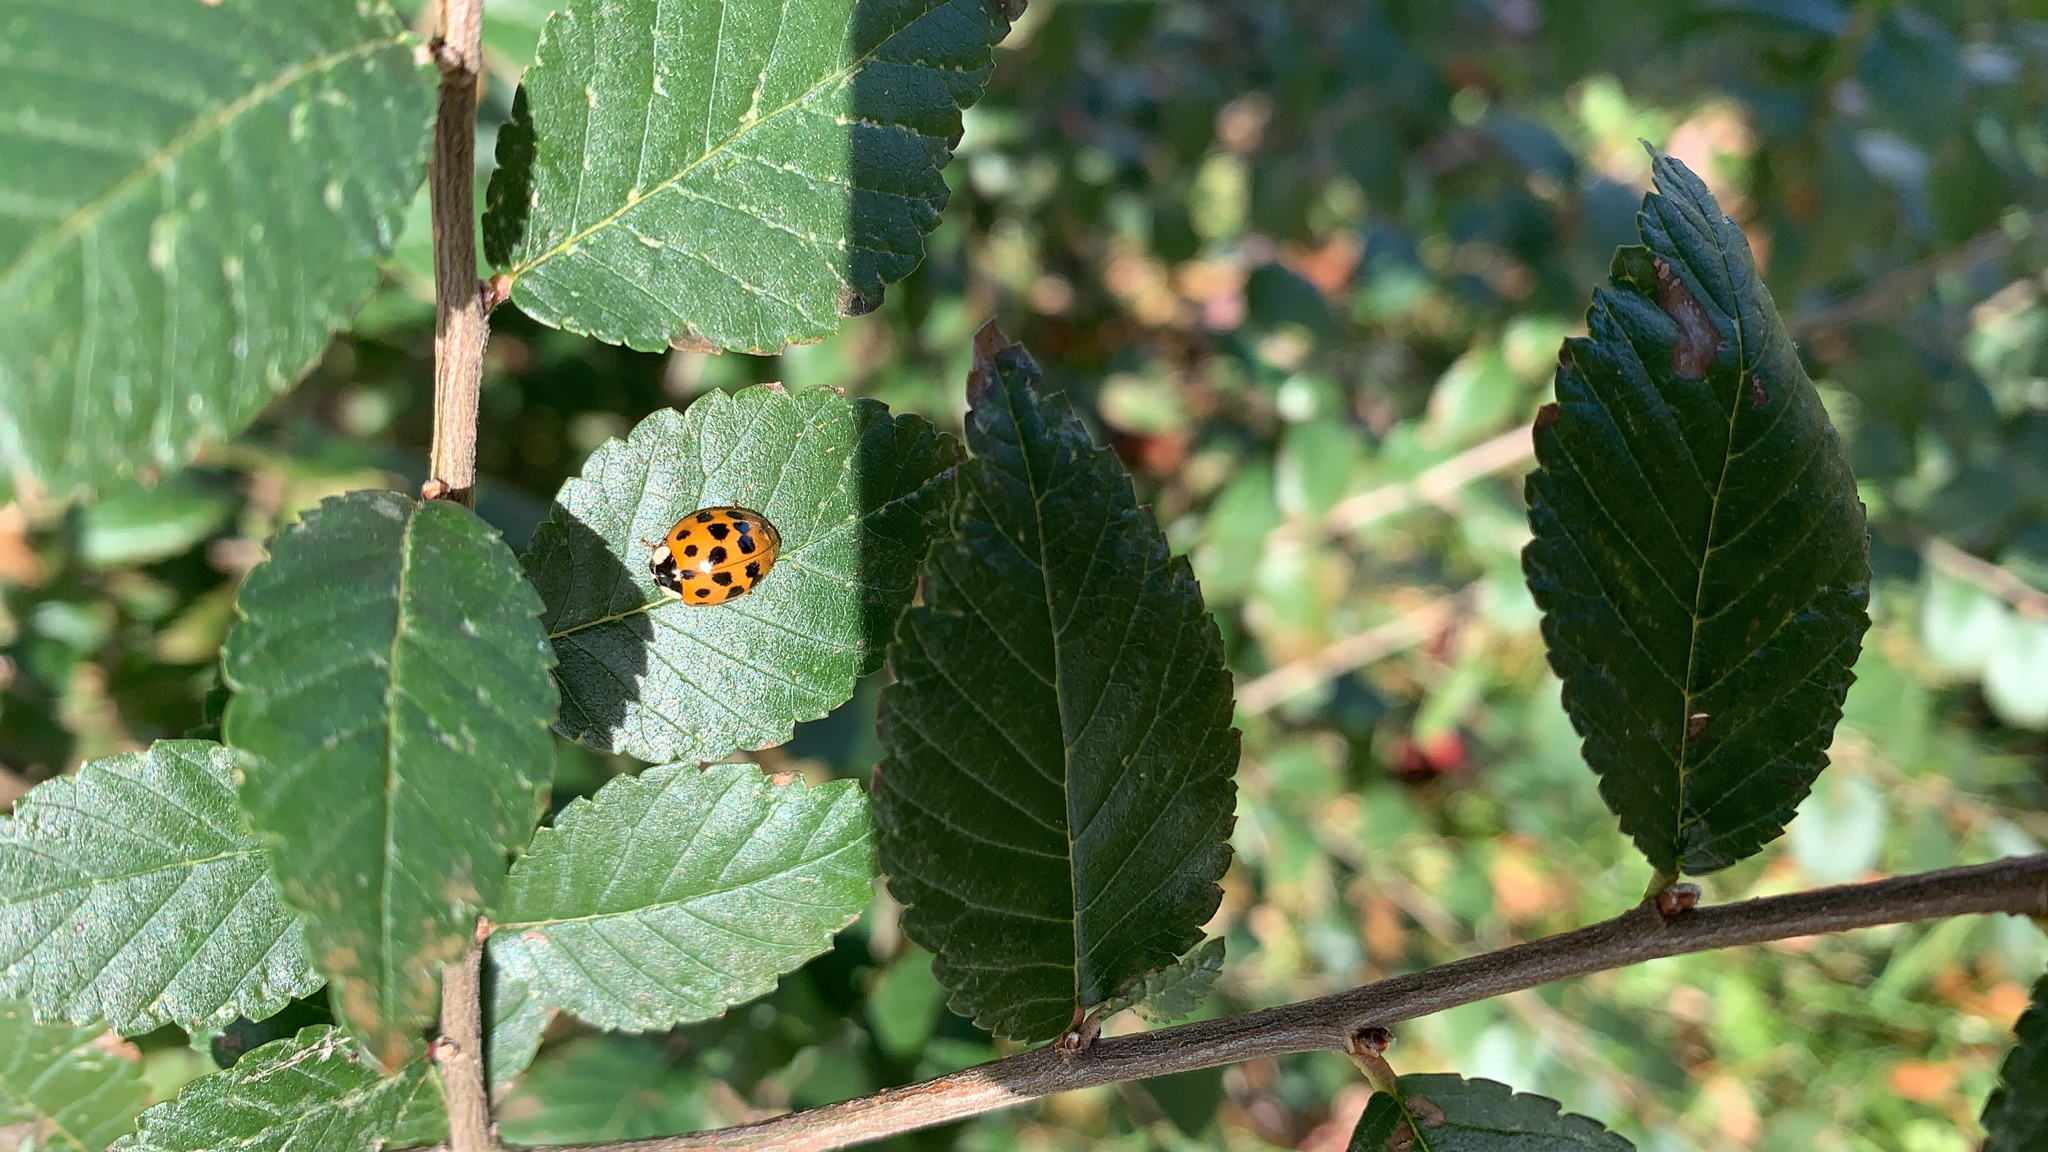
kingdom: Animalia
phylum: Arthropoda
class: Insecta
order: Coleoptera
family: Coccinellidae
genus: Harmonia
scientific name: Harmonia axyridis
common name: Harlequin ladybird
